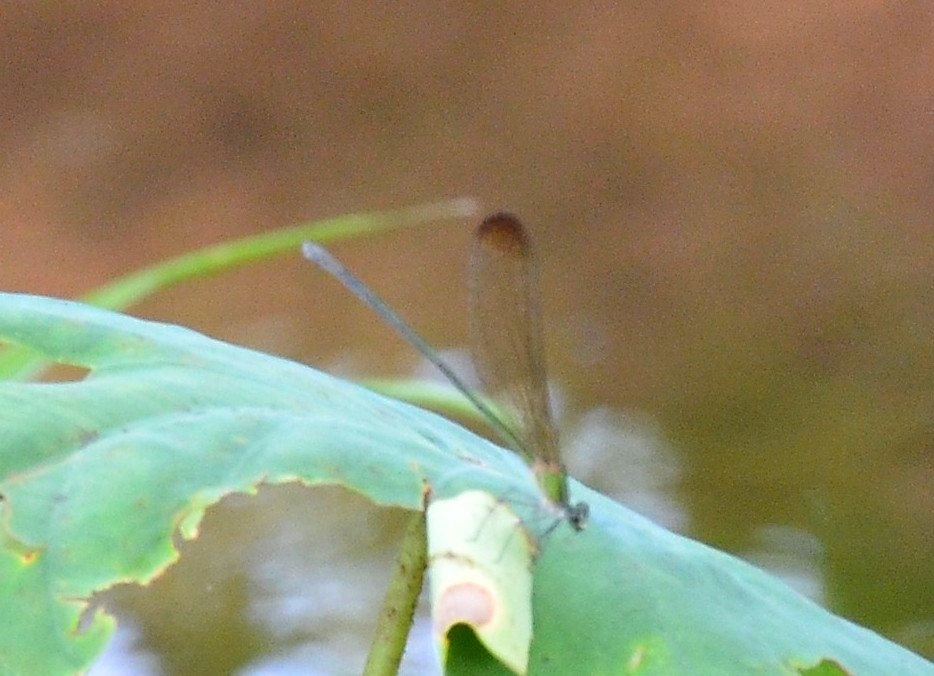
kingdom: Animalia
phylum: Arthropoda
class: Insecta
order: Odonata
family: Calopterygidae
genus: Vestalis
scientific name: Vestalis apicalis
